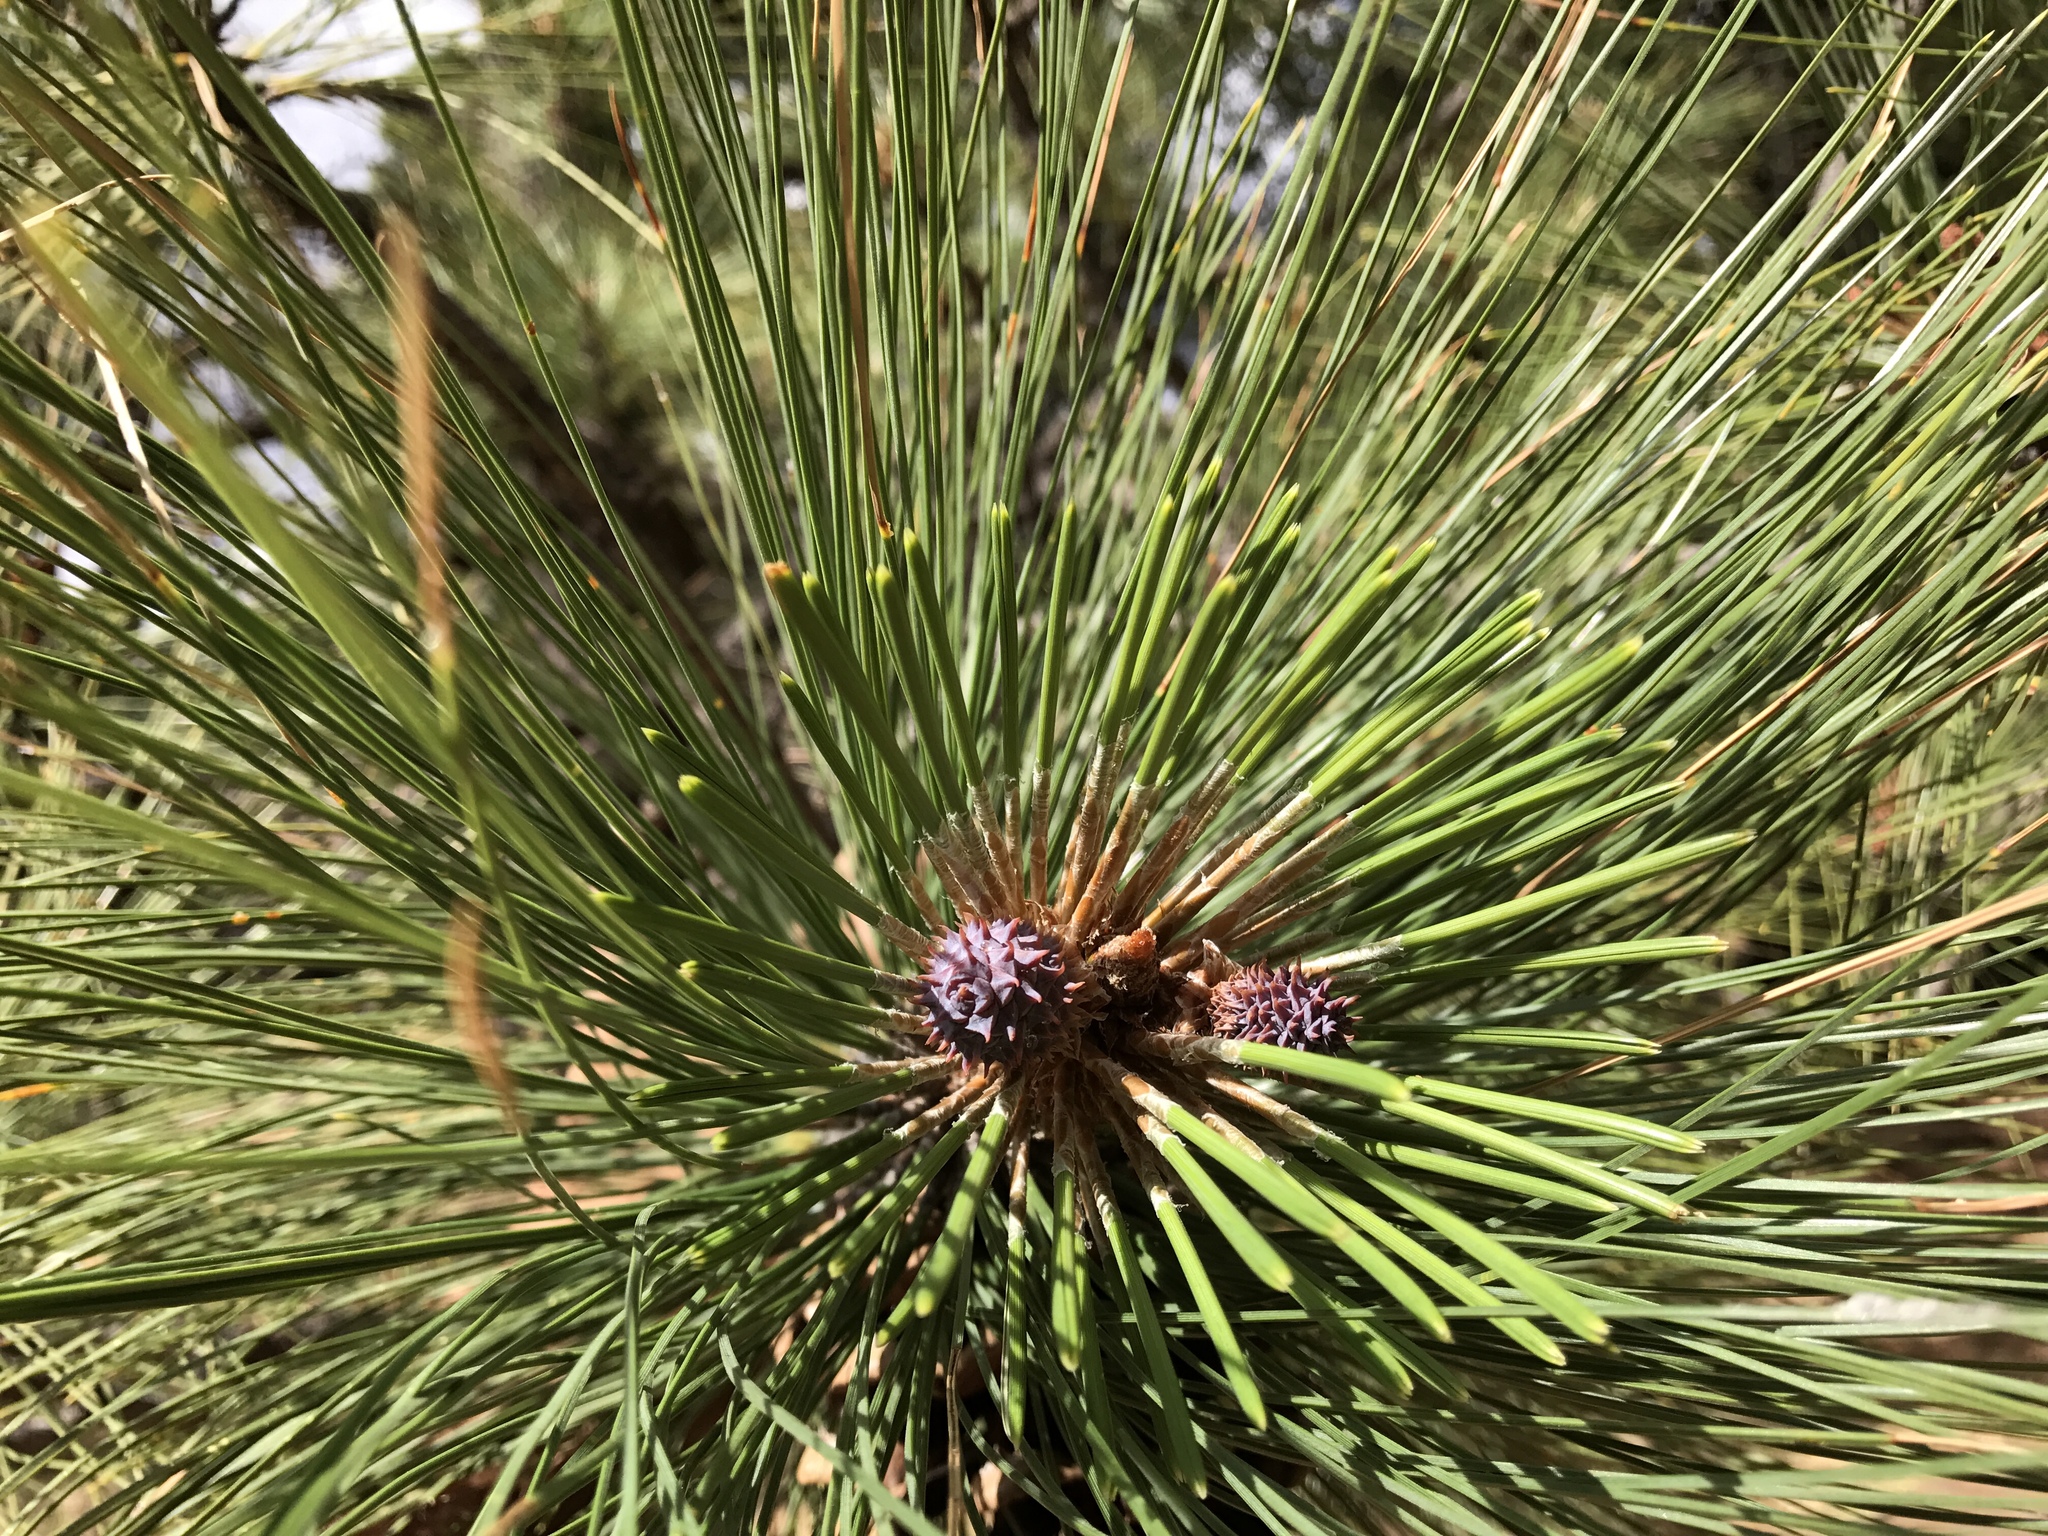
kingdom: Plantae
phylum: Tracheophyta
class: Pinopsida
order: Pinales
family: Pinaceae
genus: Pinus
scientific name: Pinus engelmannii
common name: Apache pine
